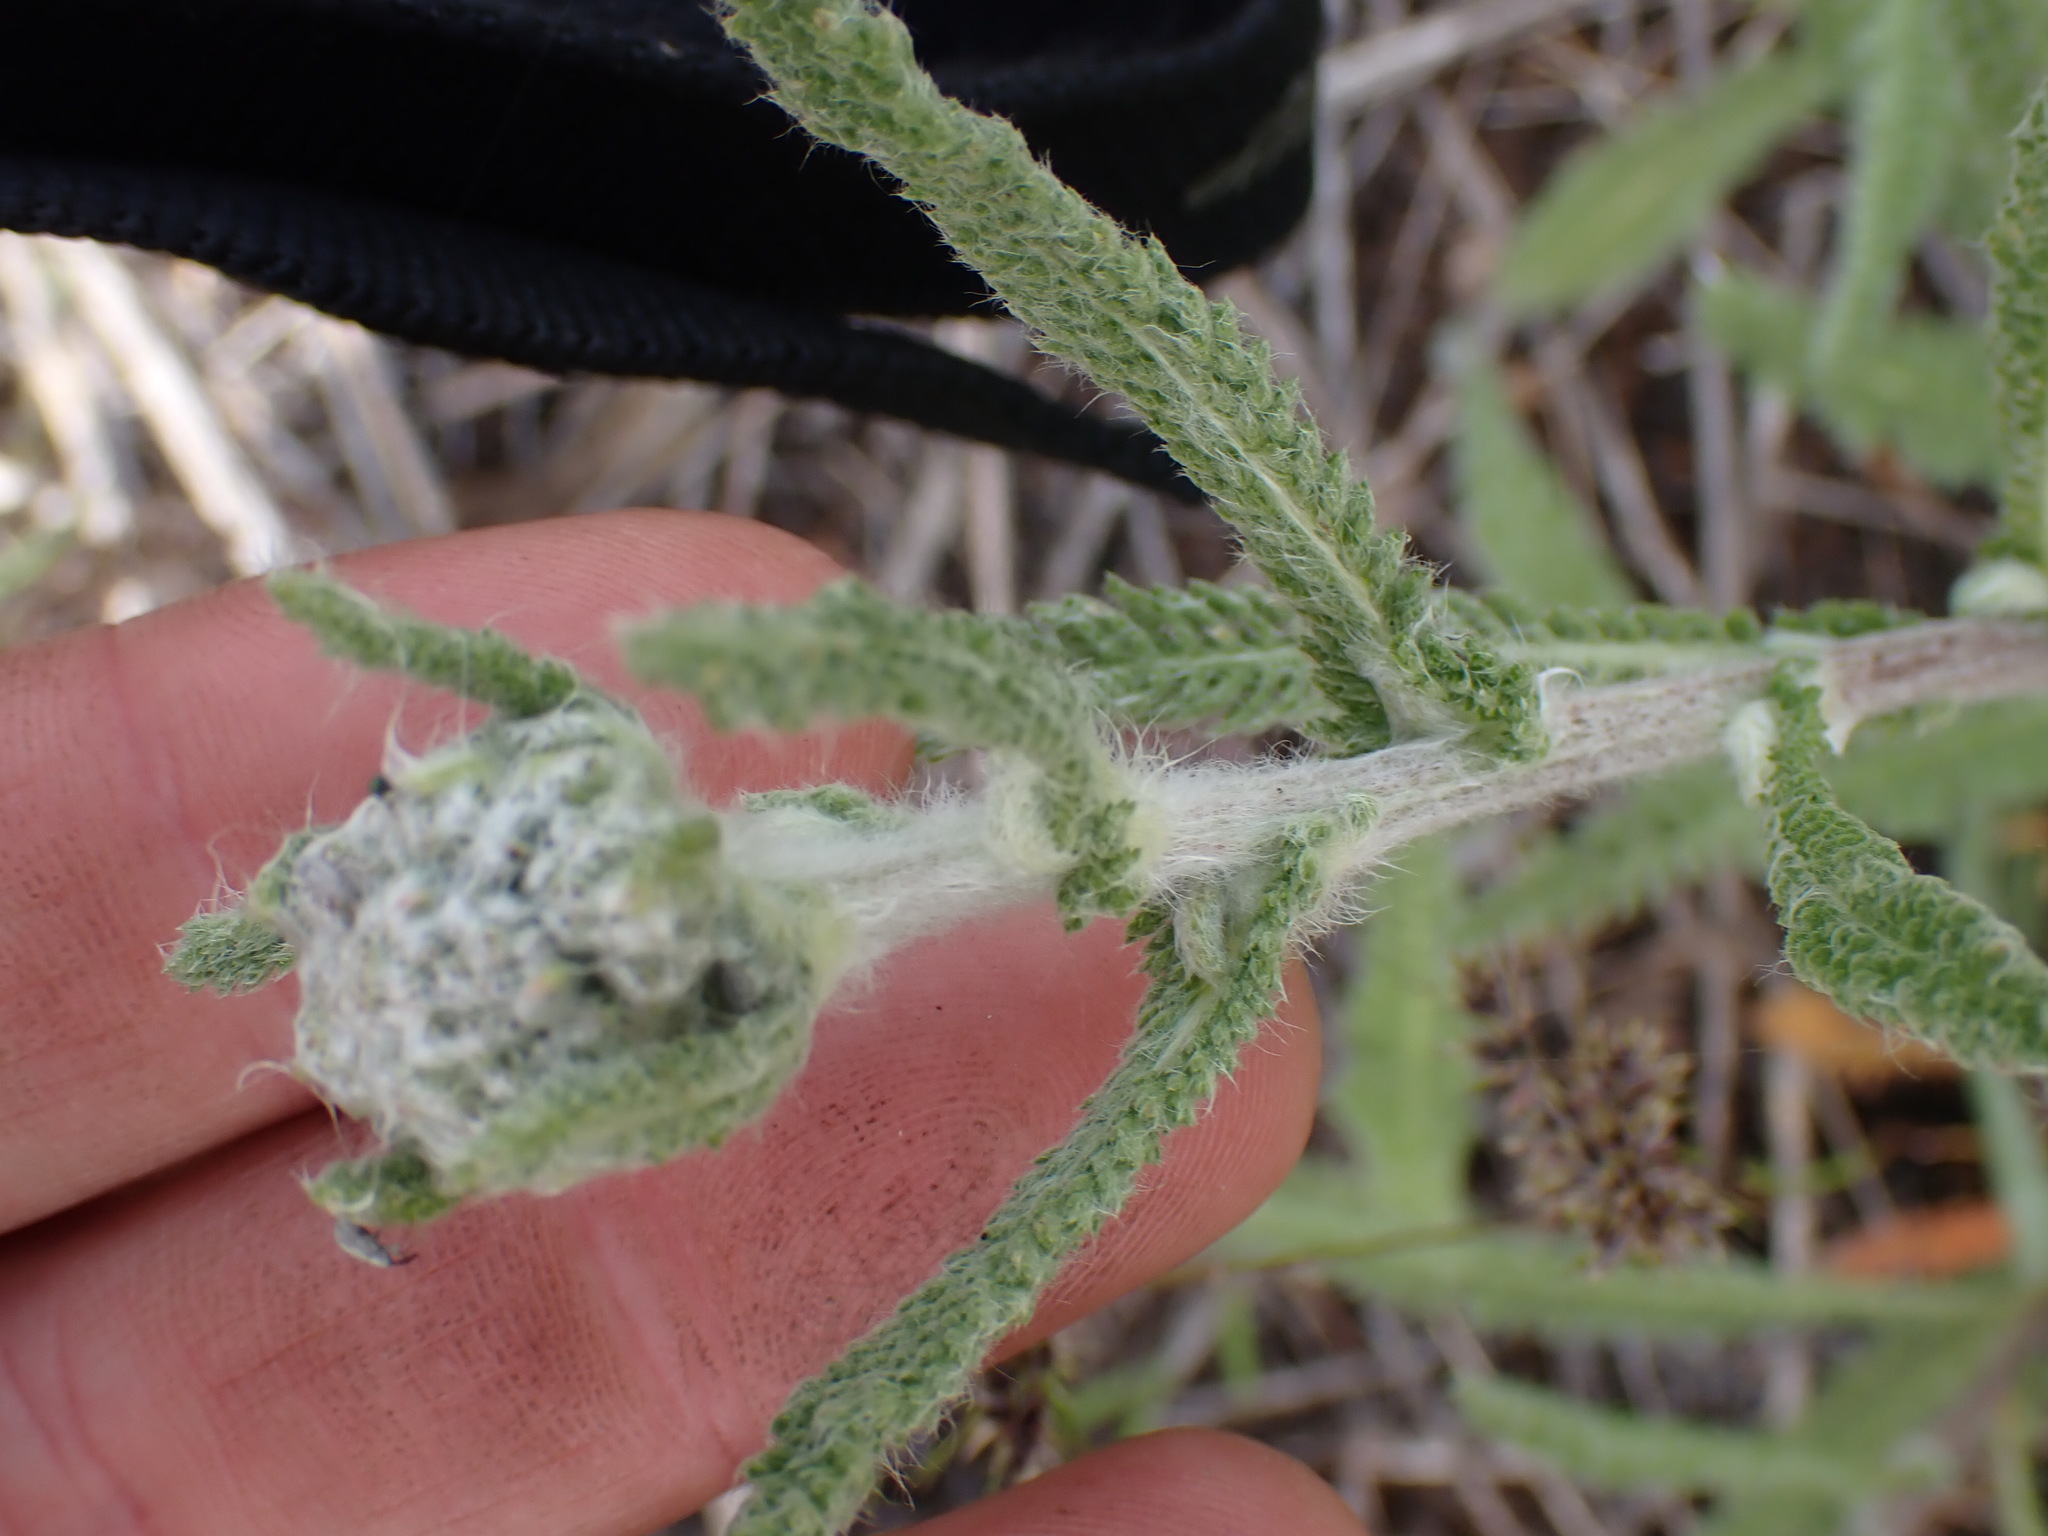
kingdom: Plantae
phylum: Tracheophyta
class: Magnoliopsida
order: Asterales
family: Asteraceae
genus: Achillea
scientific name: Achillea millefolium
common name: Yarrow
